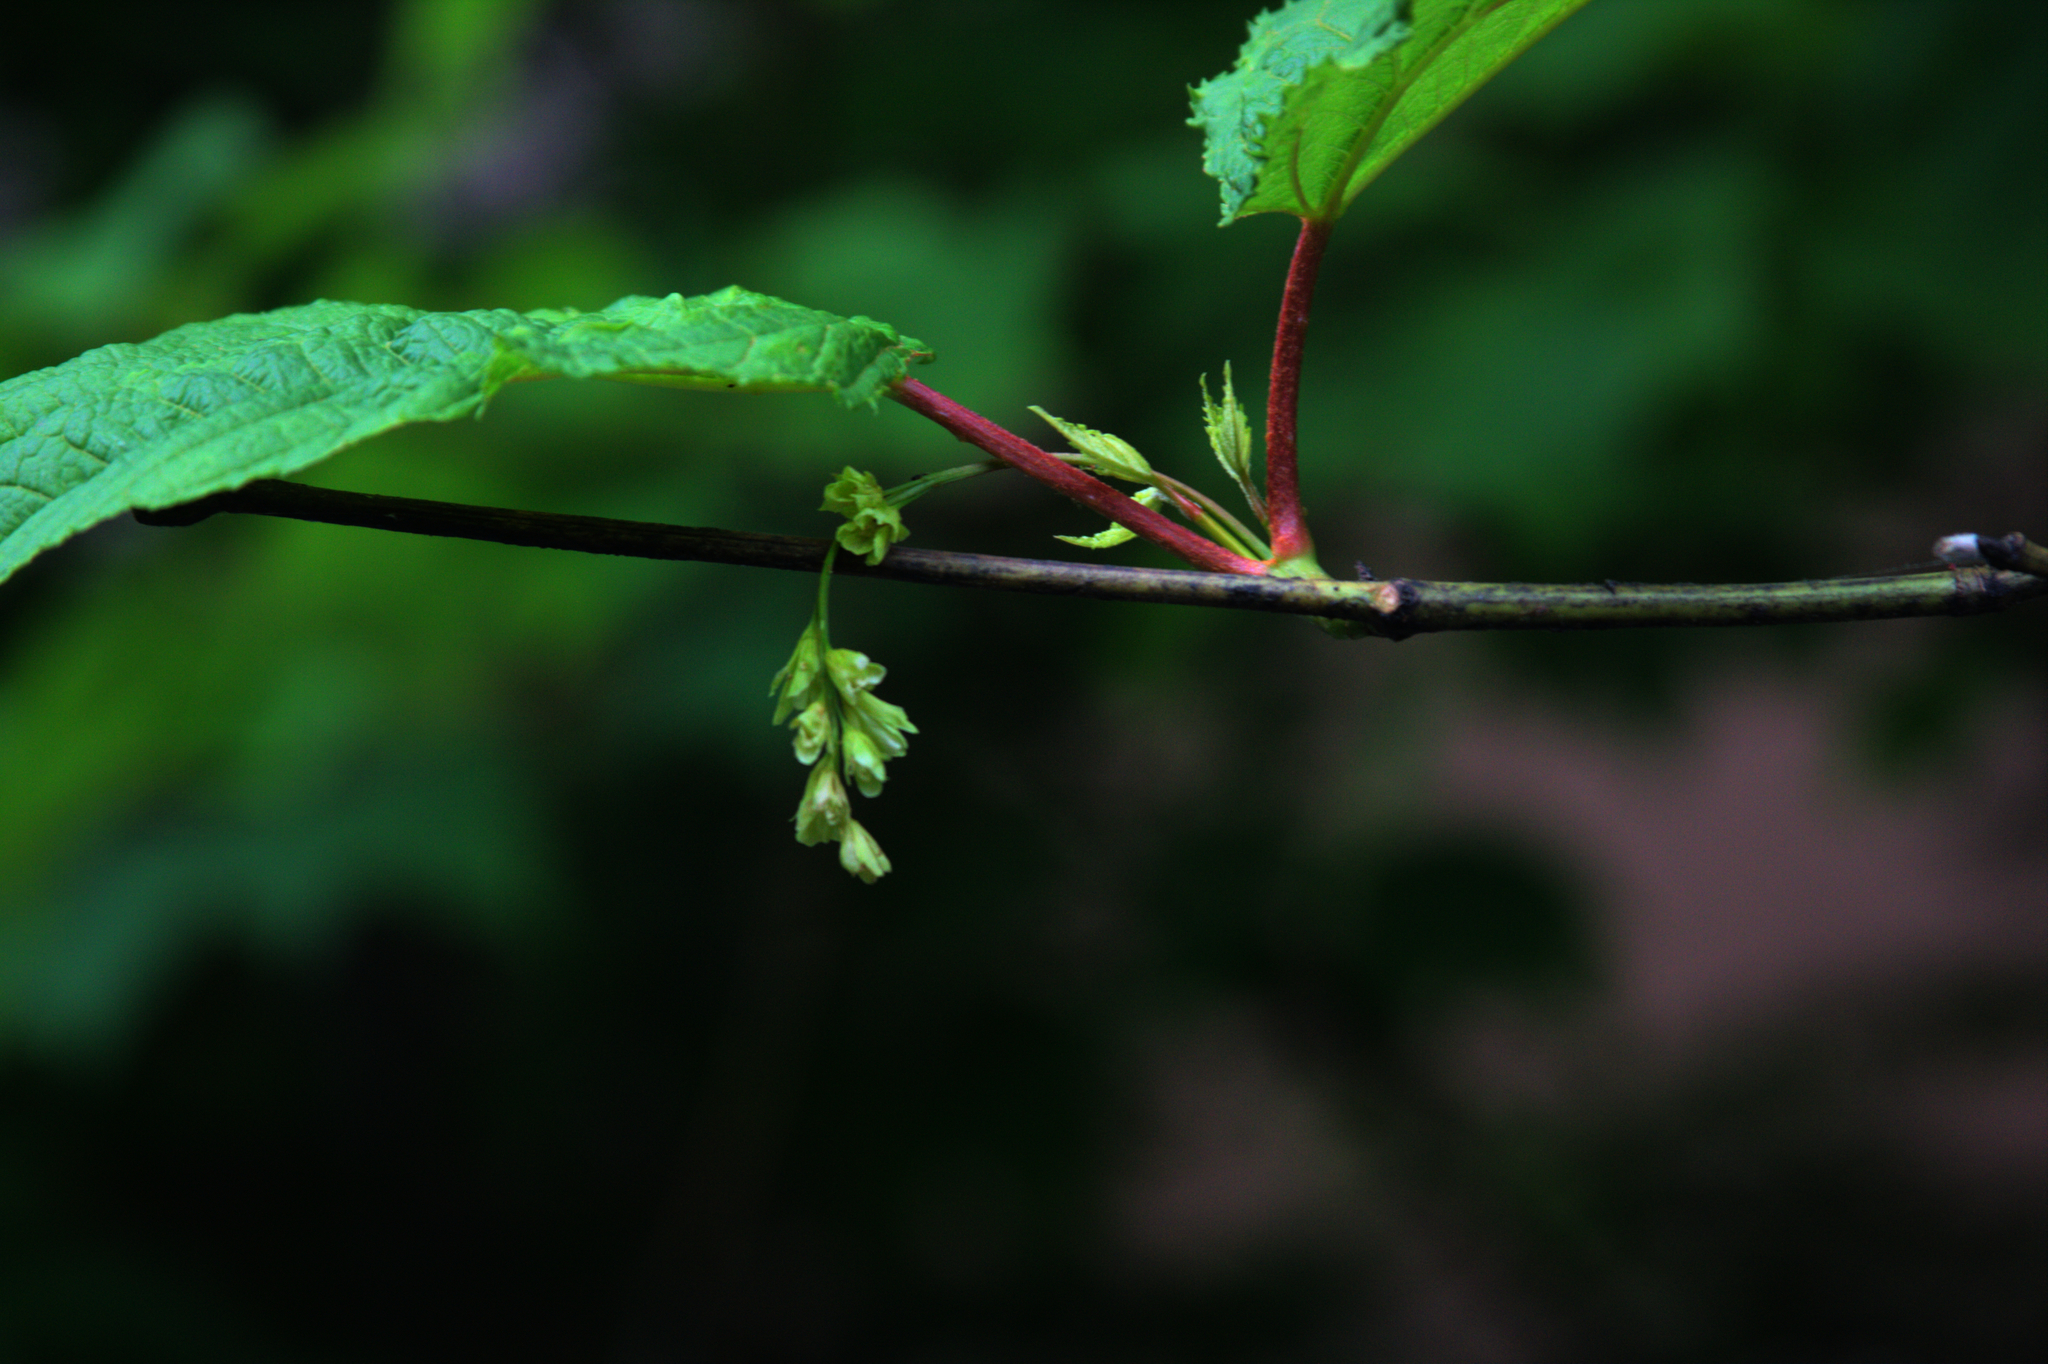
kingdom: Plantae
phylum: Tracheophyta
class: Magnoliopsida
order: Sapindales
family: Sapindaceae
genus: Acer
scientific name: Acer pensylvanicum
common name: Moosewood
